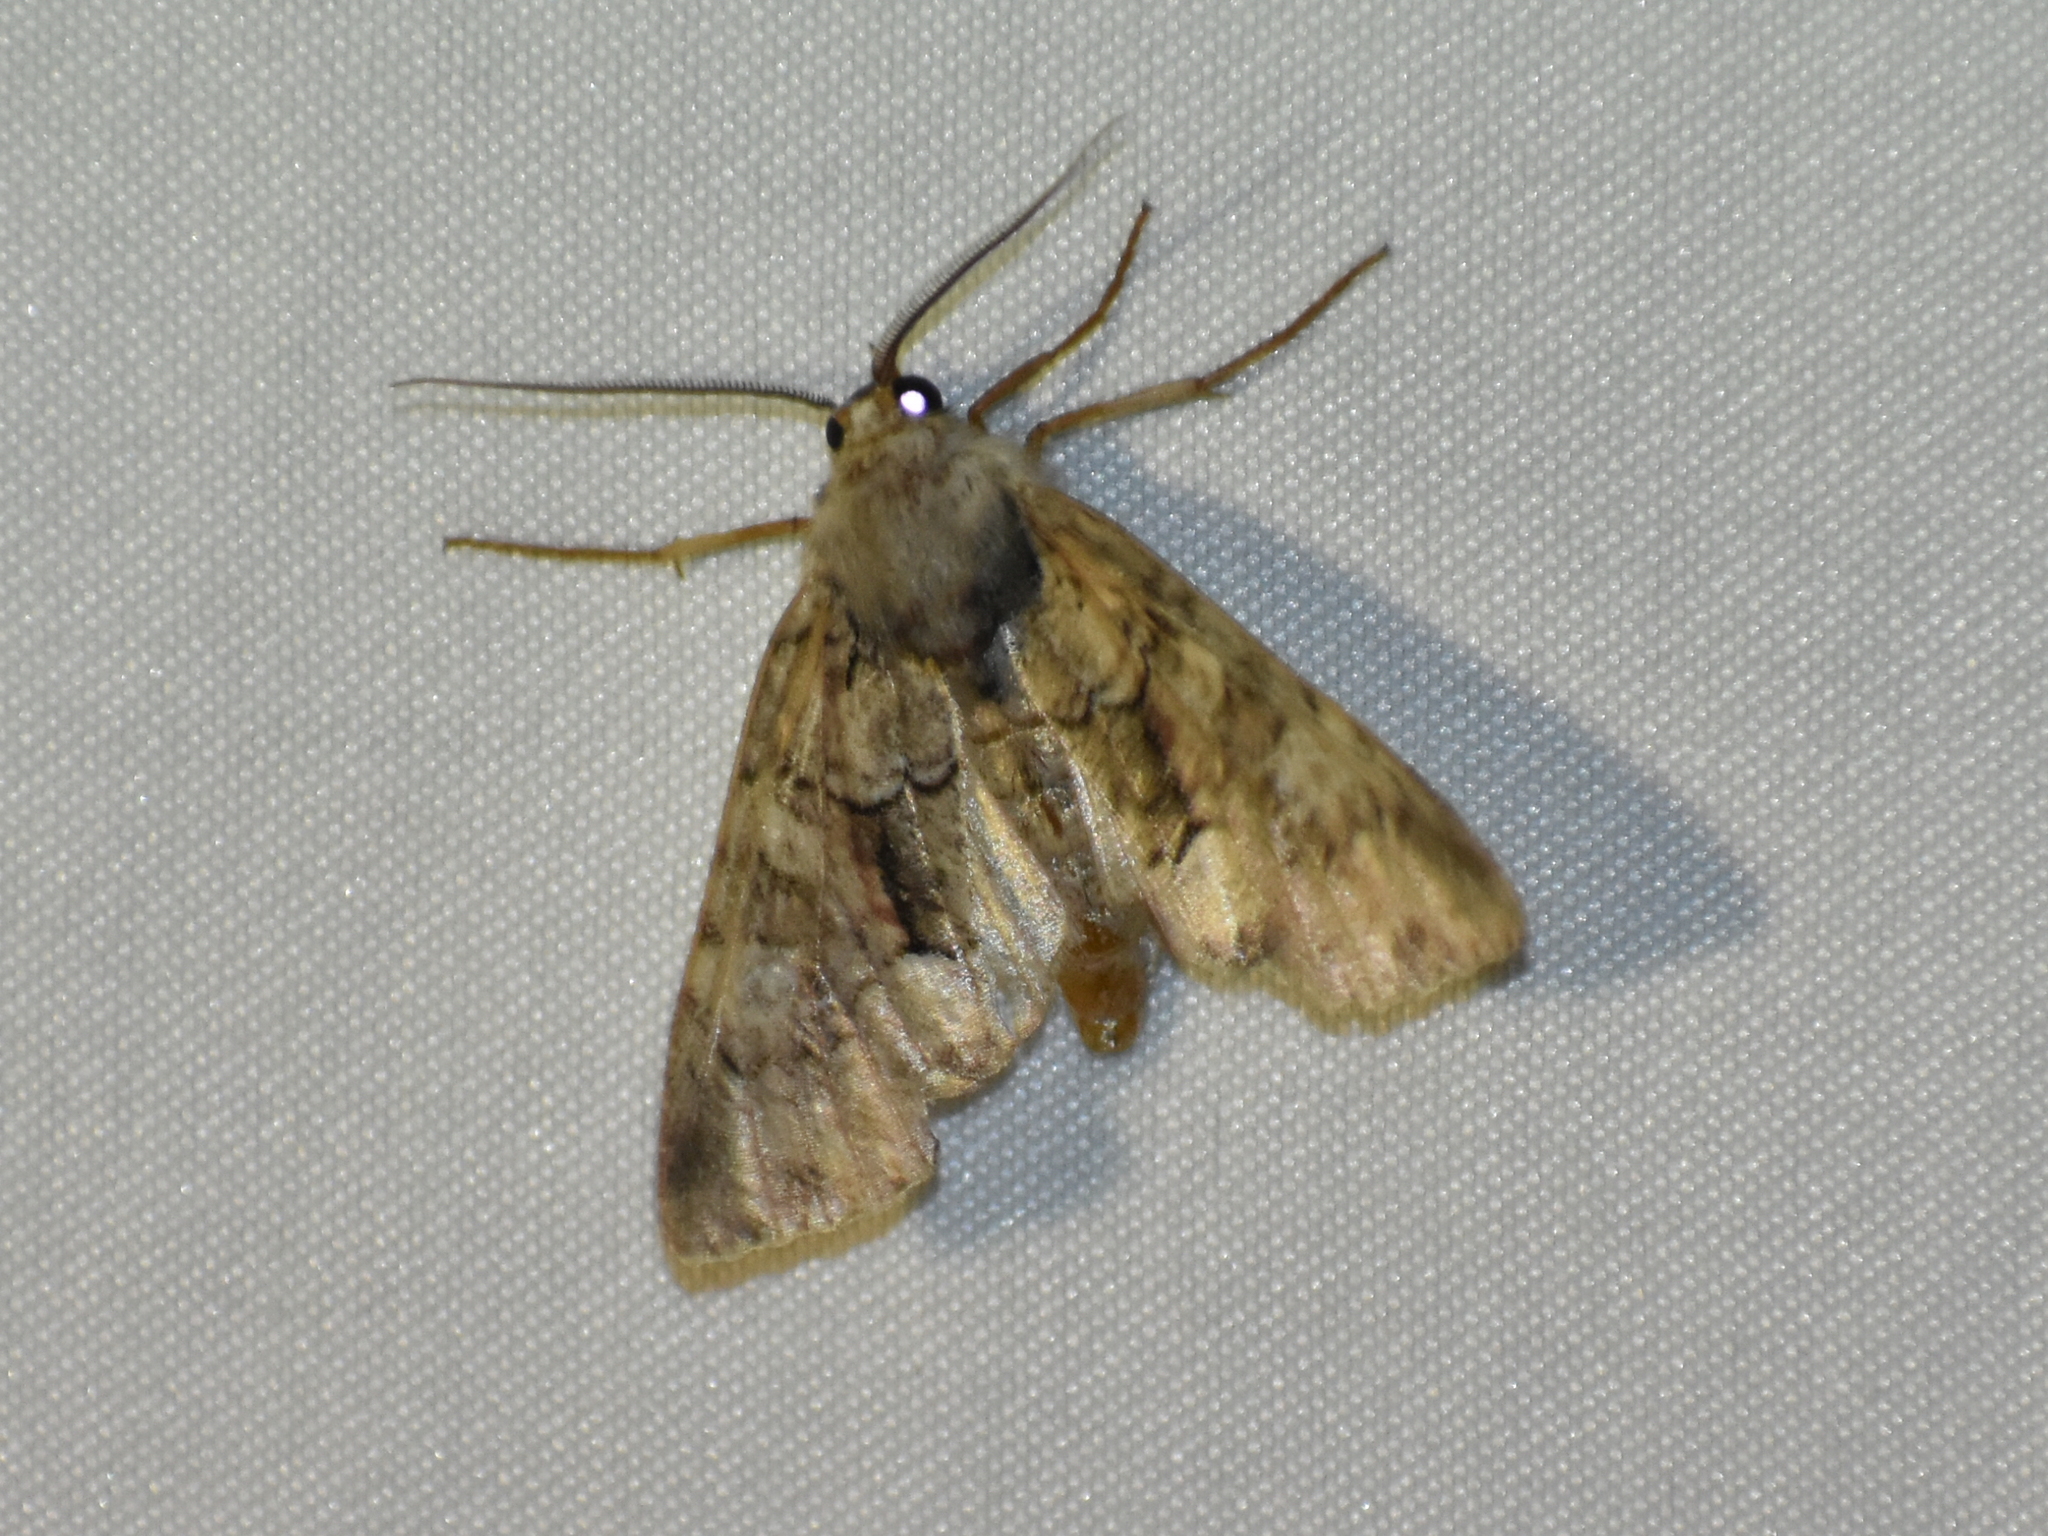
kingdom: Animalia
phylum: Arthropoda
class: Insecta
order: Lepidoptera
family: Noctuidae
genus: Fishia
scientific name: Fishia illocata
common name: Wandering brocade moth
